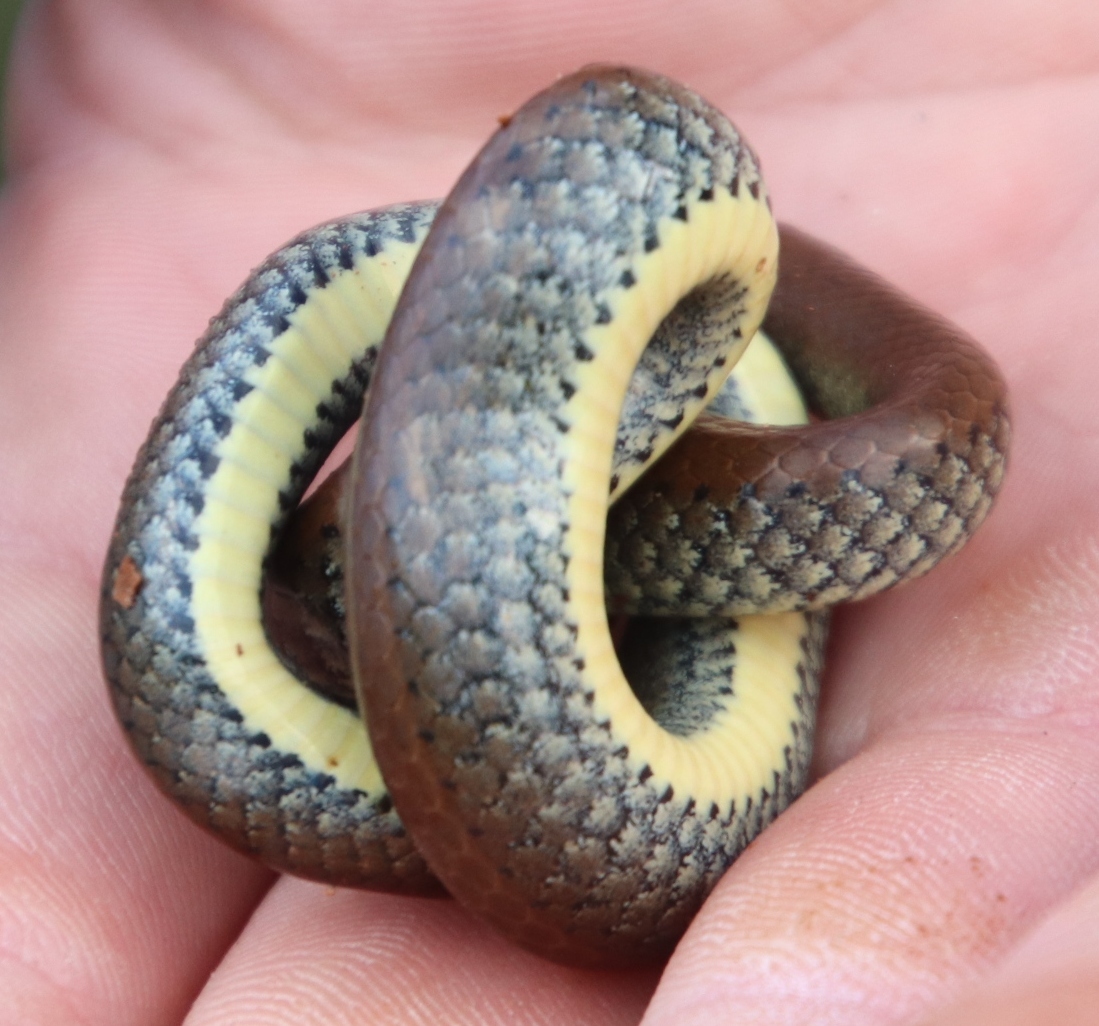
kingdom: Animalia
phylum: Chordata
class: Squamata
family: Pseudoxyrhophiidae
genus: Duberria
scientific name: Duberria lutrix
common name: Common slug eater
